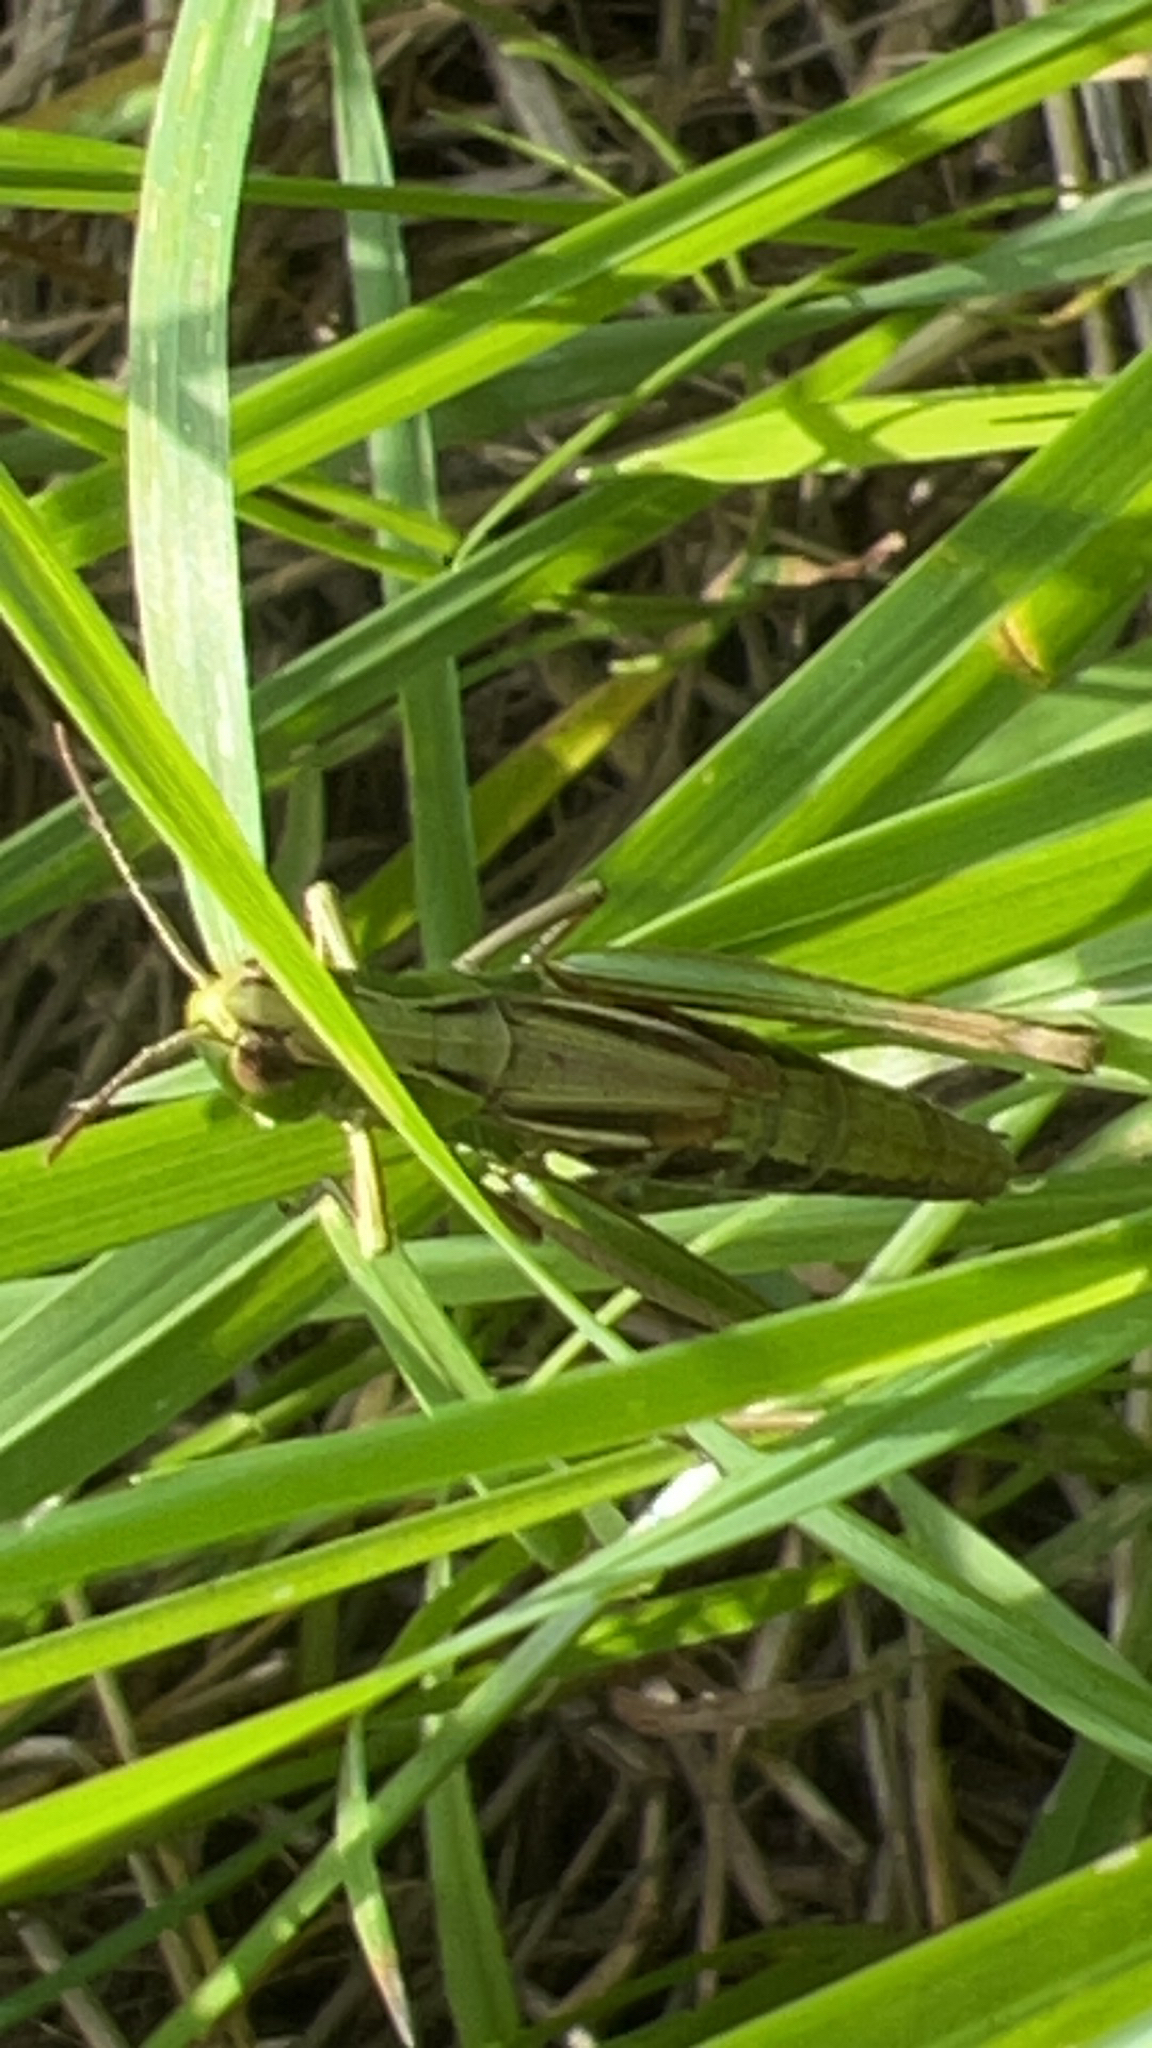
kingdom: Animalia
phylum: Arthropoda
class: Insecta
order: Orthoptera
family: Acrididae
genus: Pseudochorthippus
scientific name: Pseudochorthippus parallelus
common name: Meadow grasshopper
